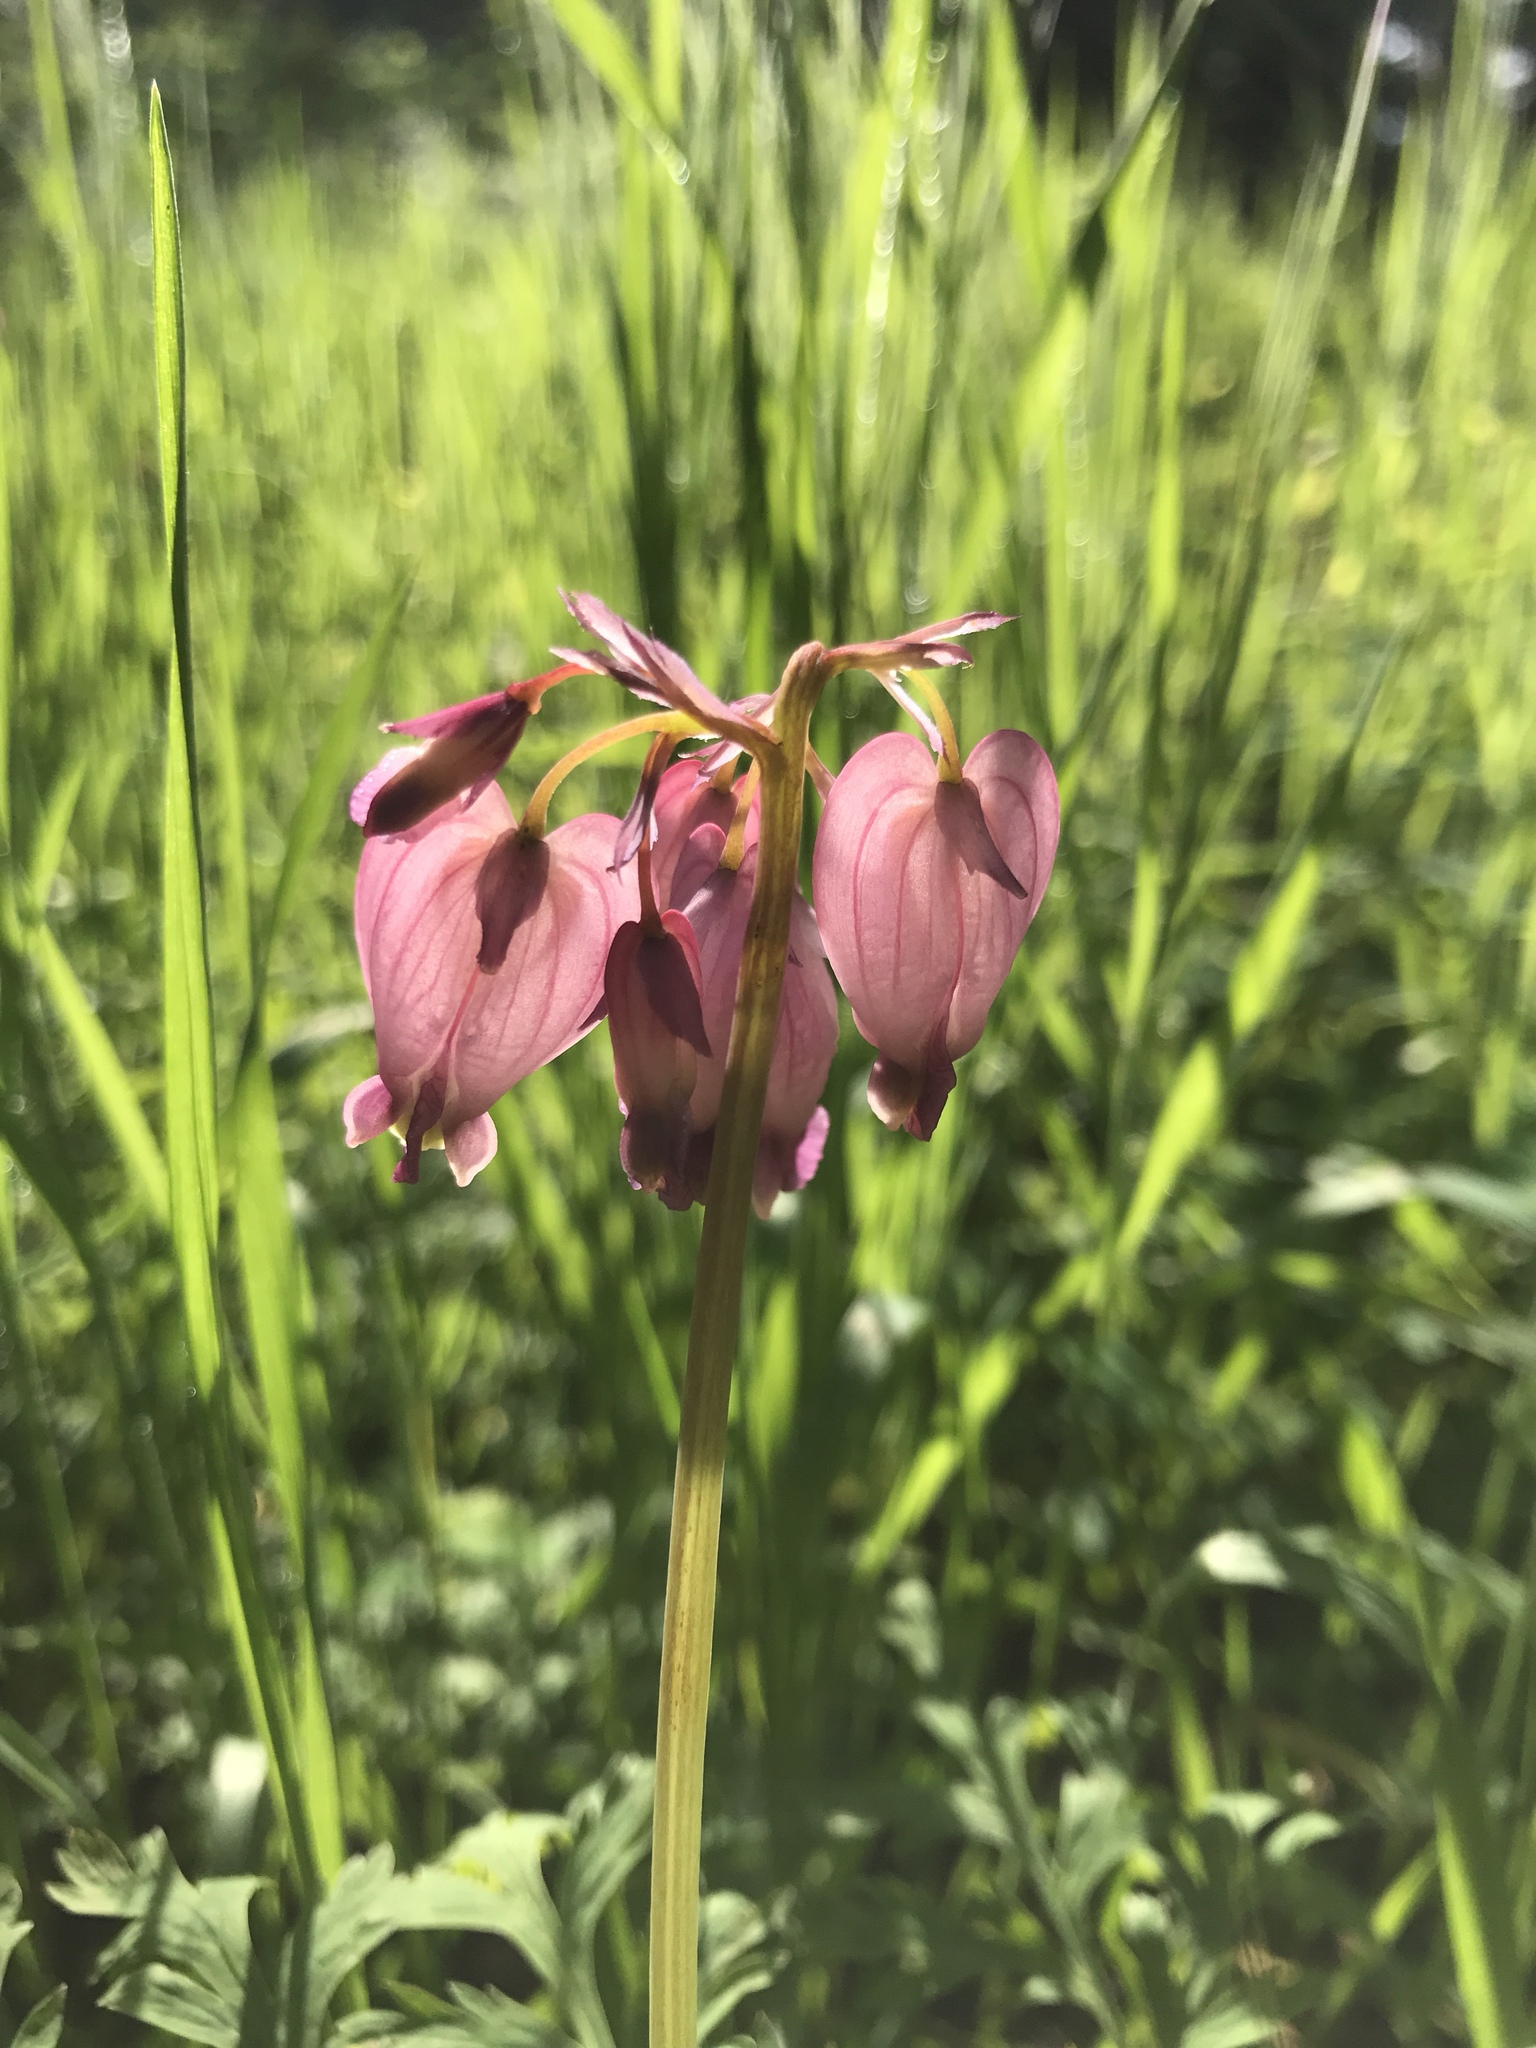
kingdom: Plantae
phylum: Tracheophyta
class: Magnoliopsida
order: Ranunculales
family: Papaveraceae
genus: Dicentra
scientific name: Dicentra formosa
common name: Bleeding-heart
